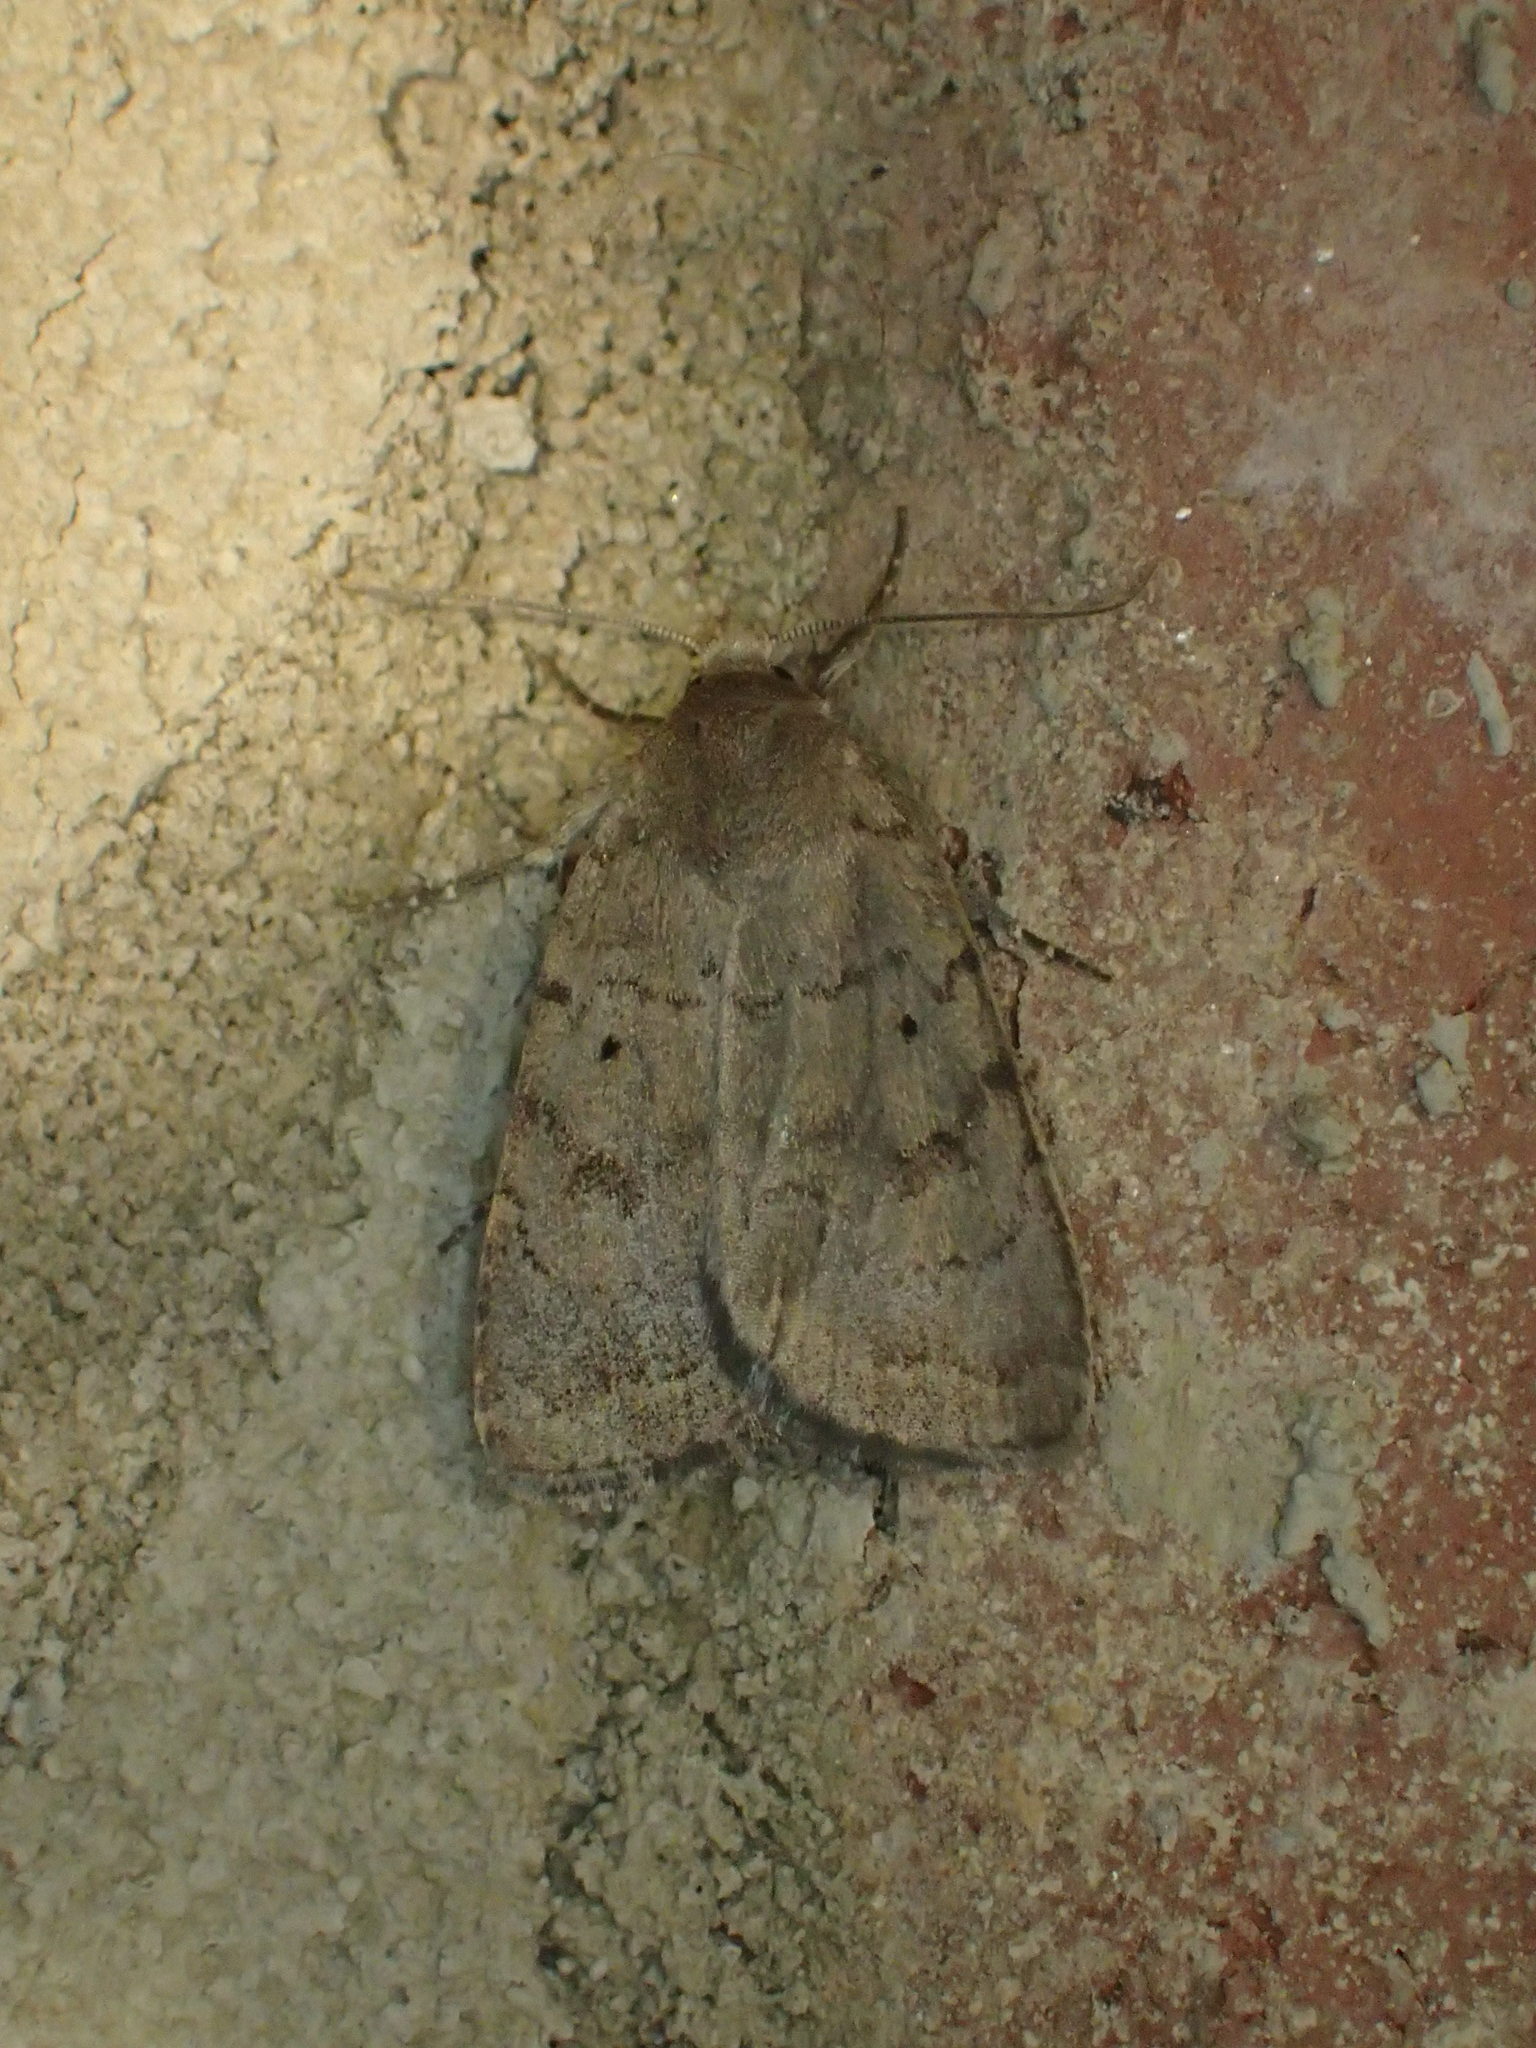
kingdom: Animalia
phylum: Arthropoda
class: Insecta
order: Lepidoptera
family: Noctuidae
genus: Athetis
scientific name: Athetis tarda
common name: Slowpoke moth
